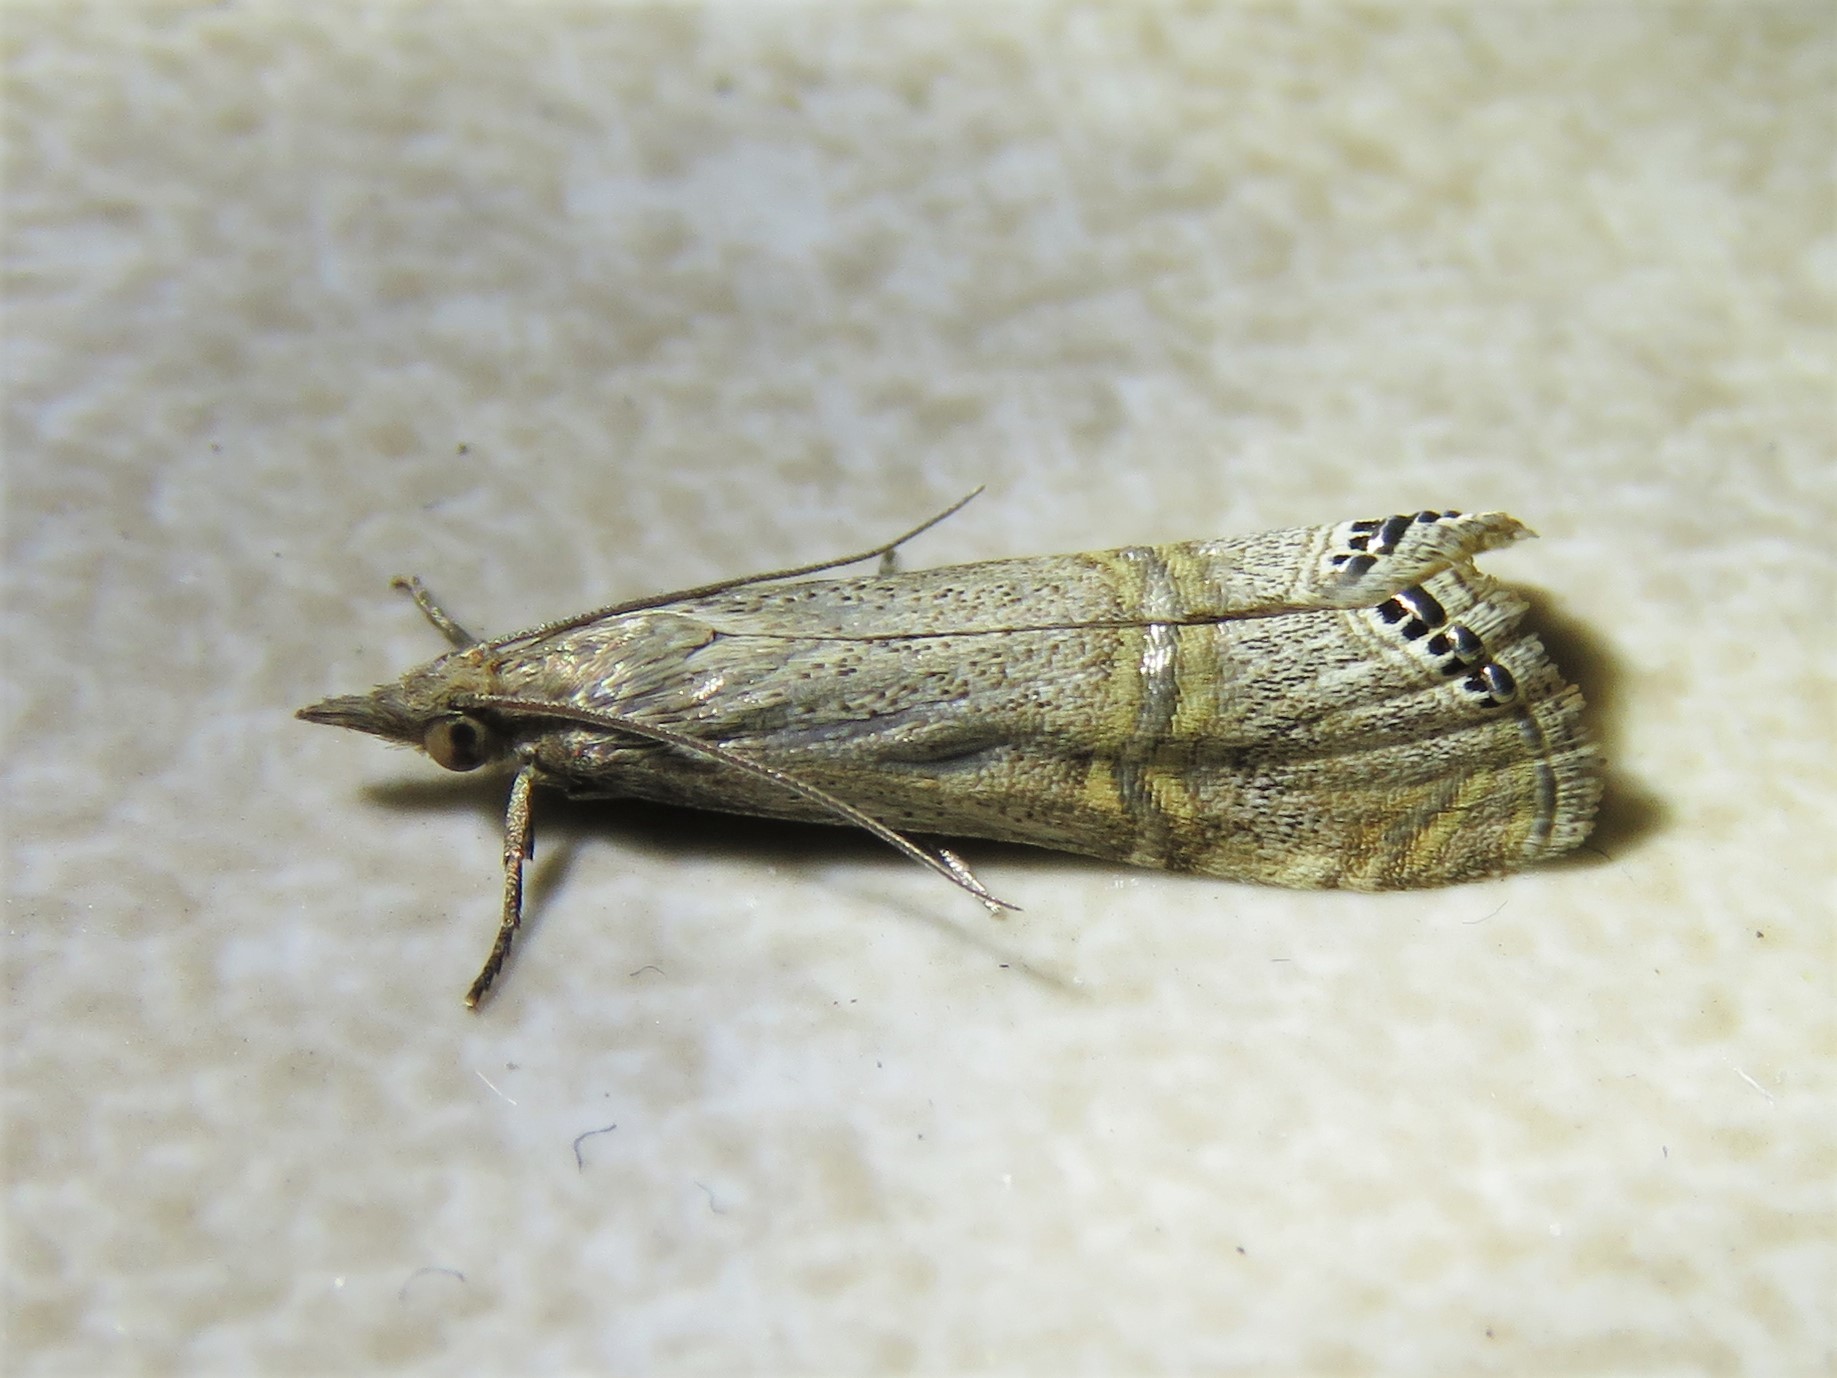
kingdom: Animalia
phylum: Arthropoda
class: Insecta
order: Lepidoptera
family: Crambidae
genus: Euchromius
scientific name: Euchromius ocellea
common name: Necklace veneer moth
